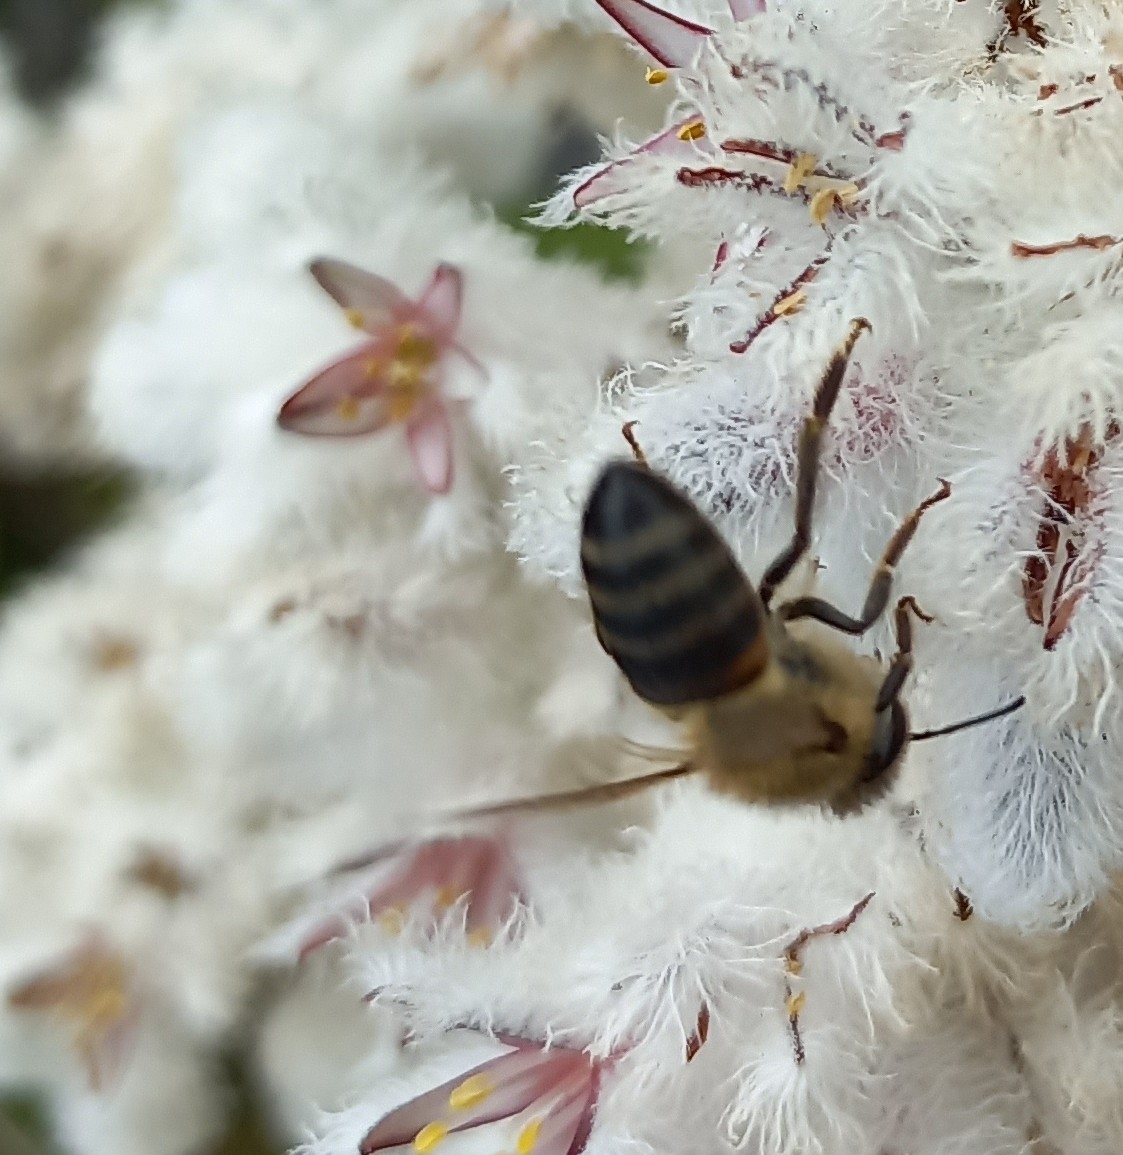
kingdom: Animalia
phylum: Arthropoda
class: Insecta
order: Hymenoptera
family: Apidae
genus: Apis
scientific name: Apis mellifera
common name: Honey bee
